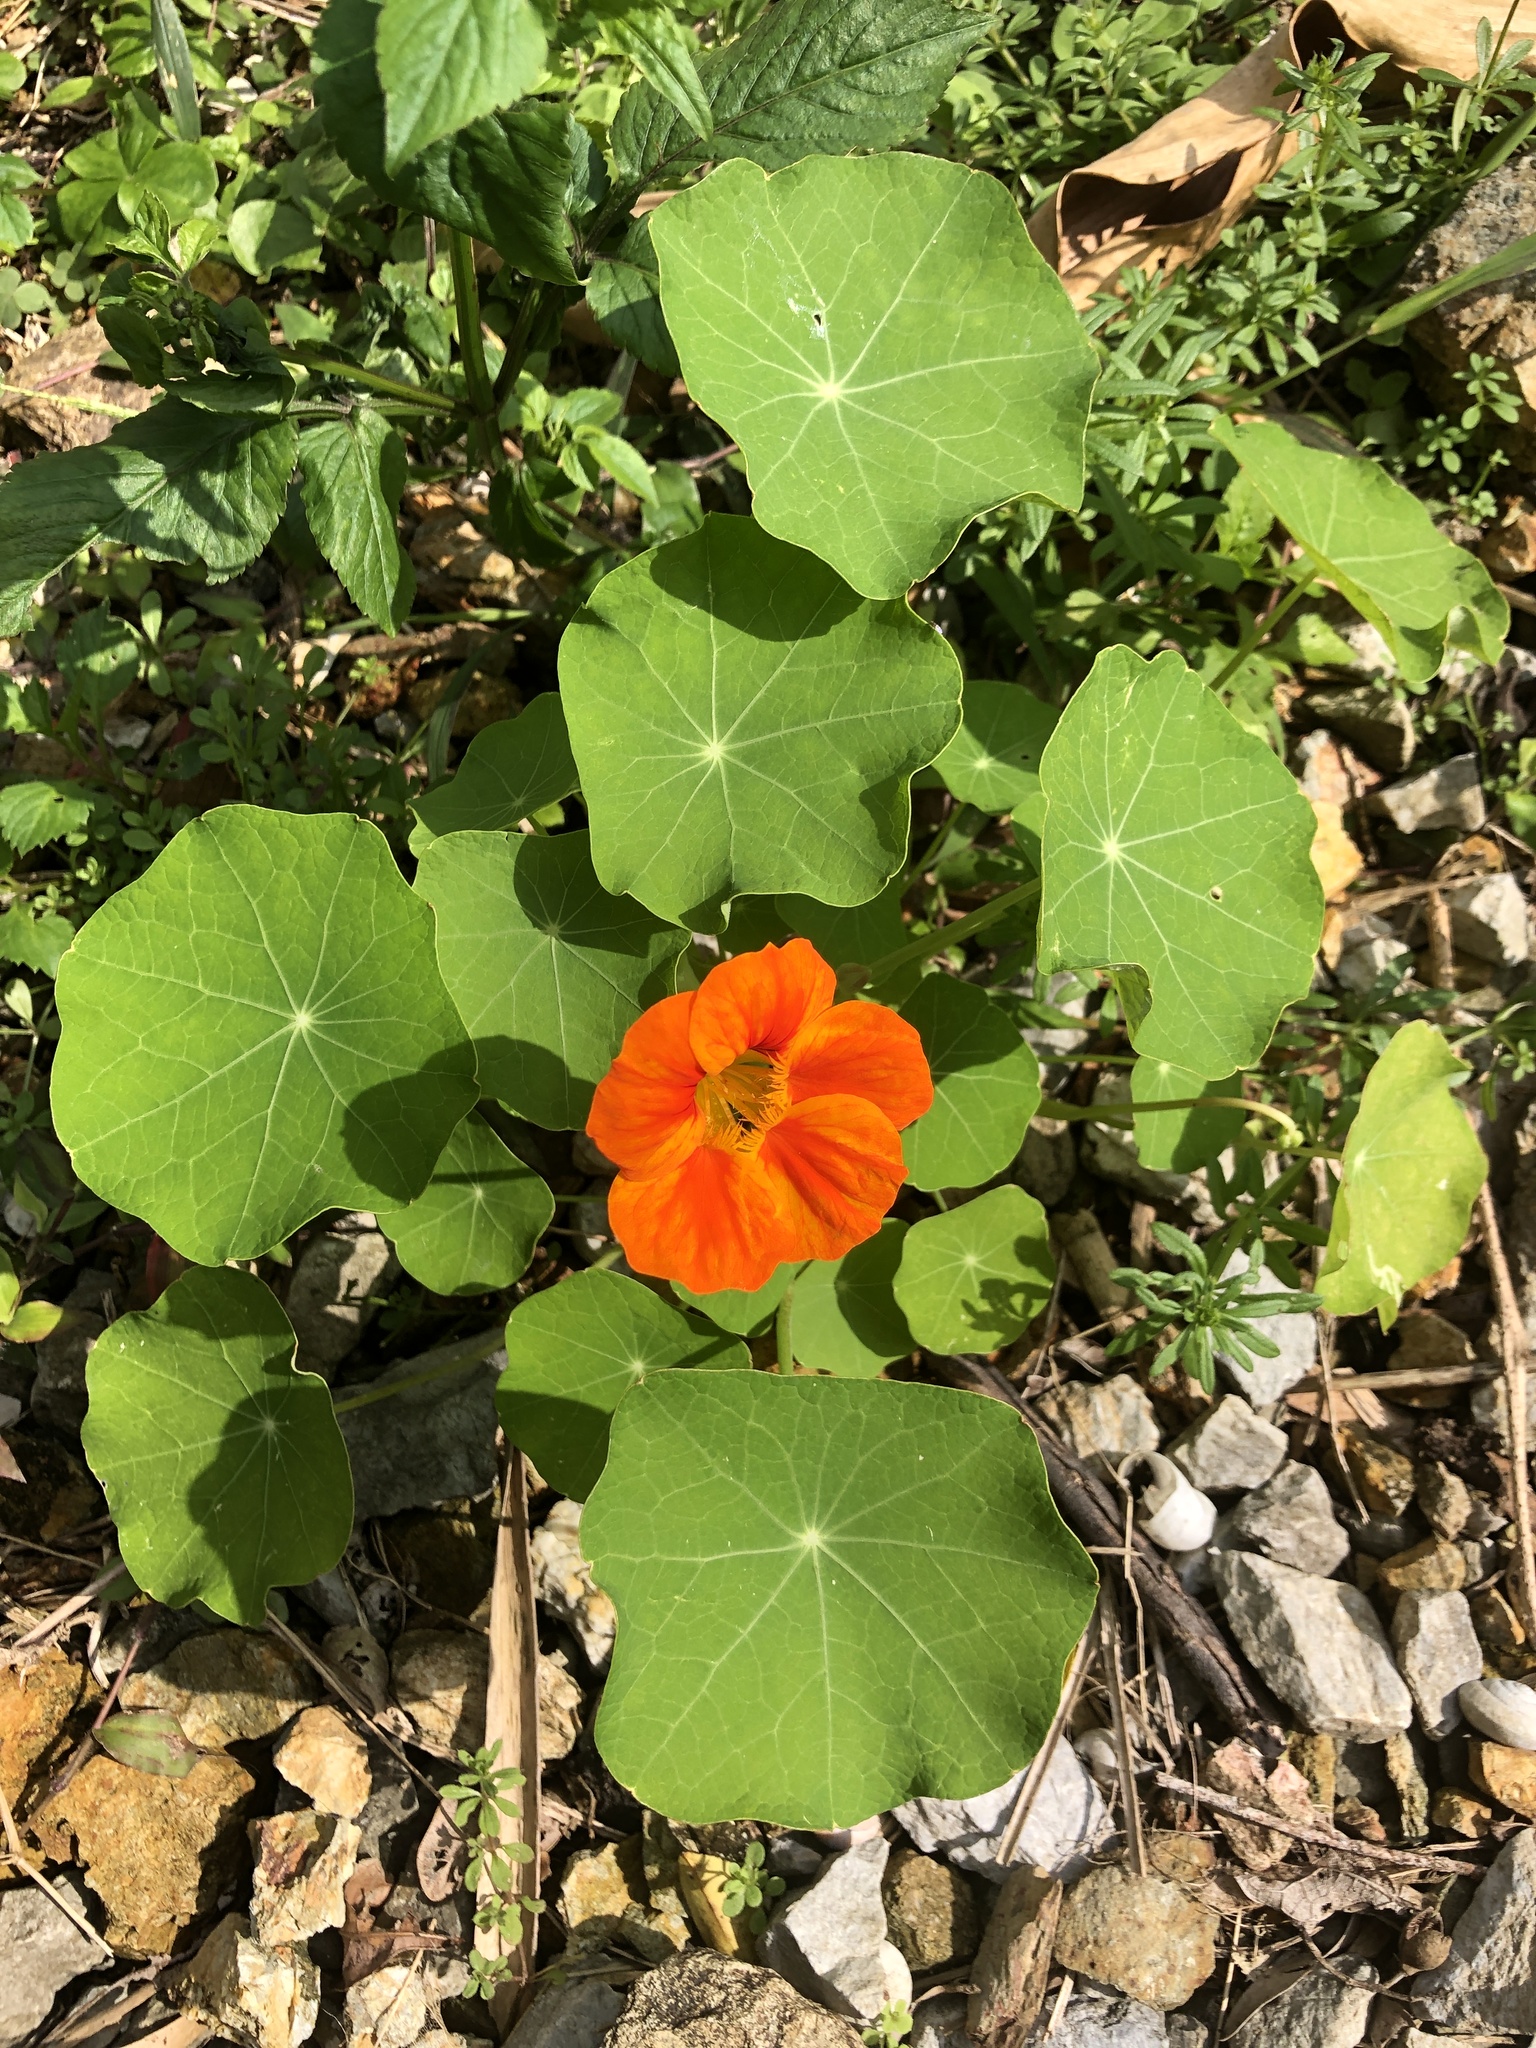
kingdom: Plantae
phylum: Tracheophyta
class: Magnoliopsida
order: Brassicales
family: Tropaeolaceae
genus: Tropaeolum
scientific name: Tropaeolum majus
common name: Nasturtium
